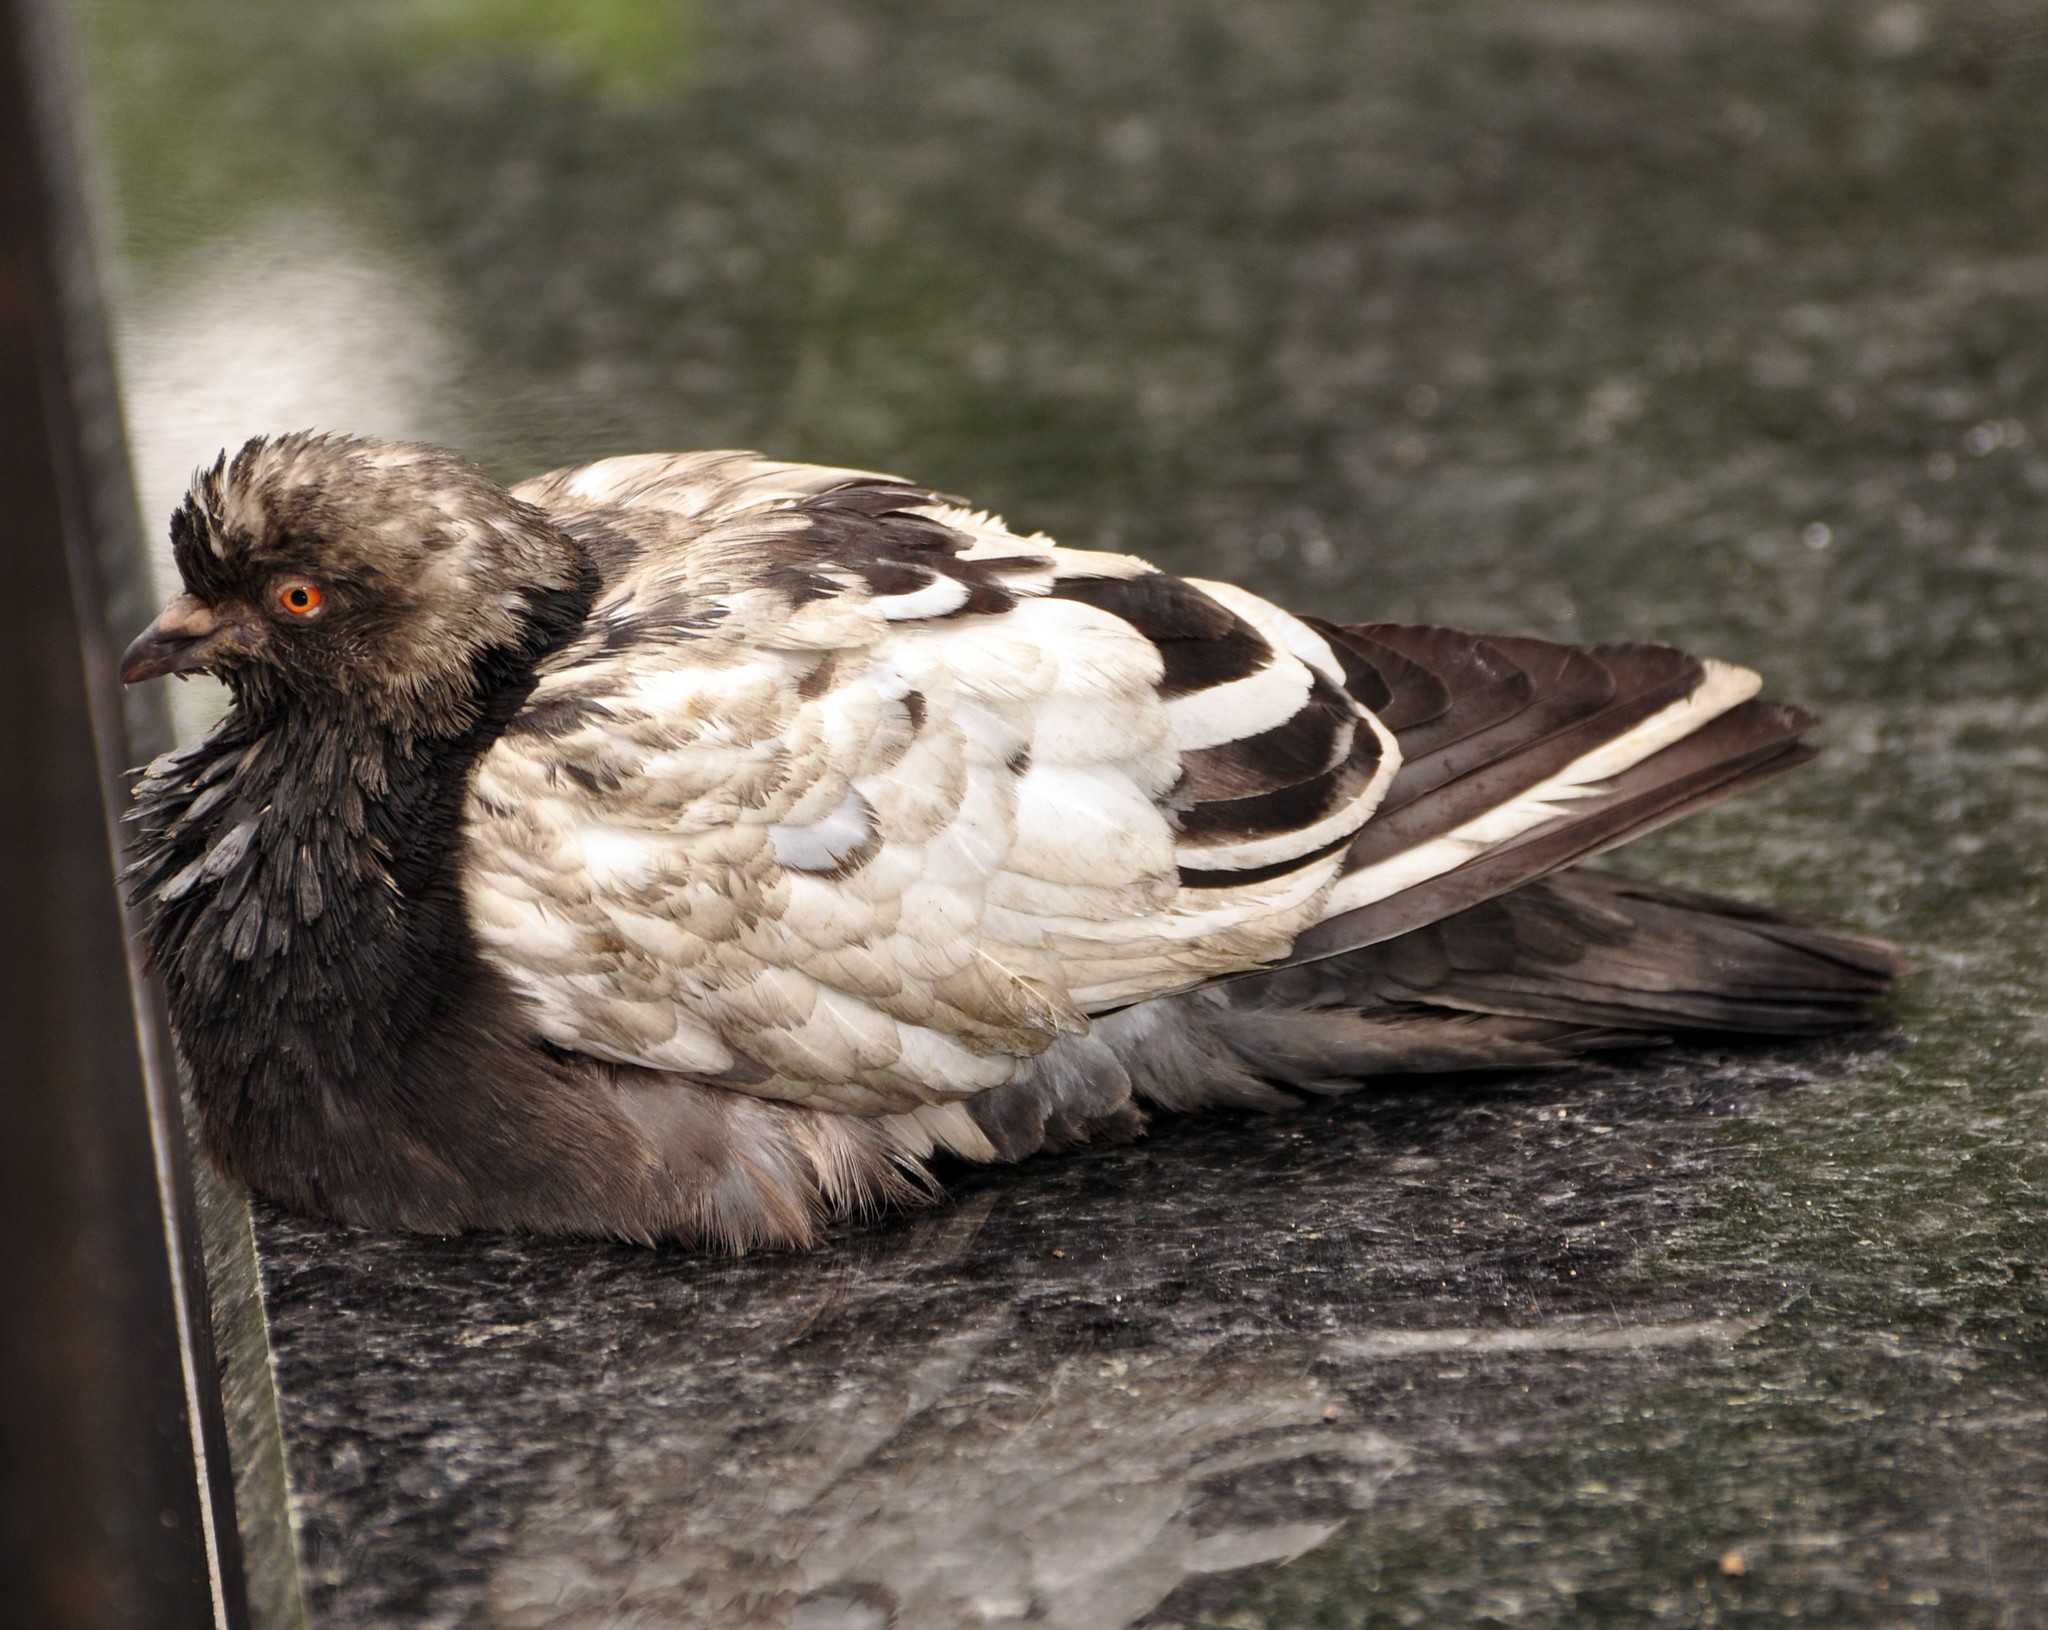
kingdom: Animalia
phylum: Chordata
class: Aves
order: Columbiformes
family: Columbidae
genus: Columba
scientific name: Columba livia
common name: Rock pigeon
